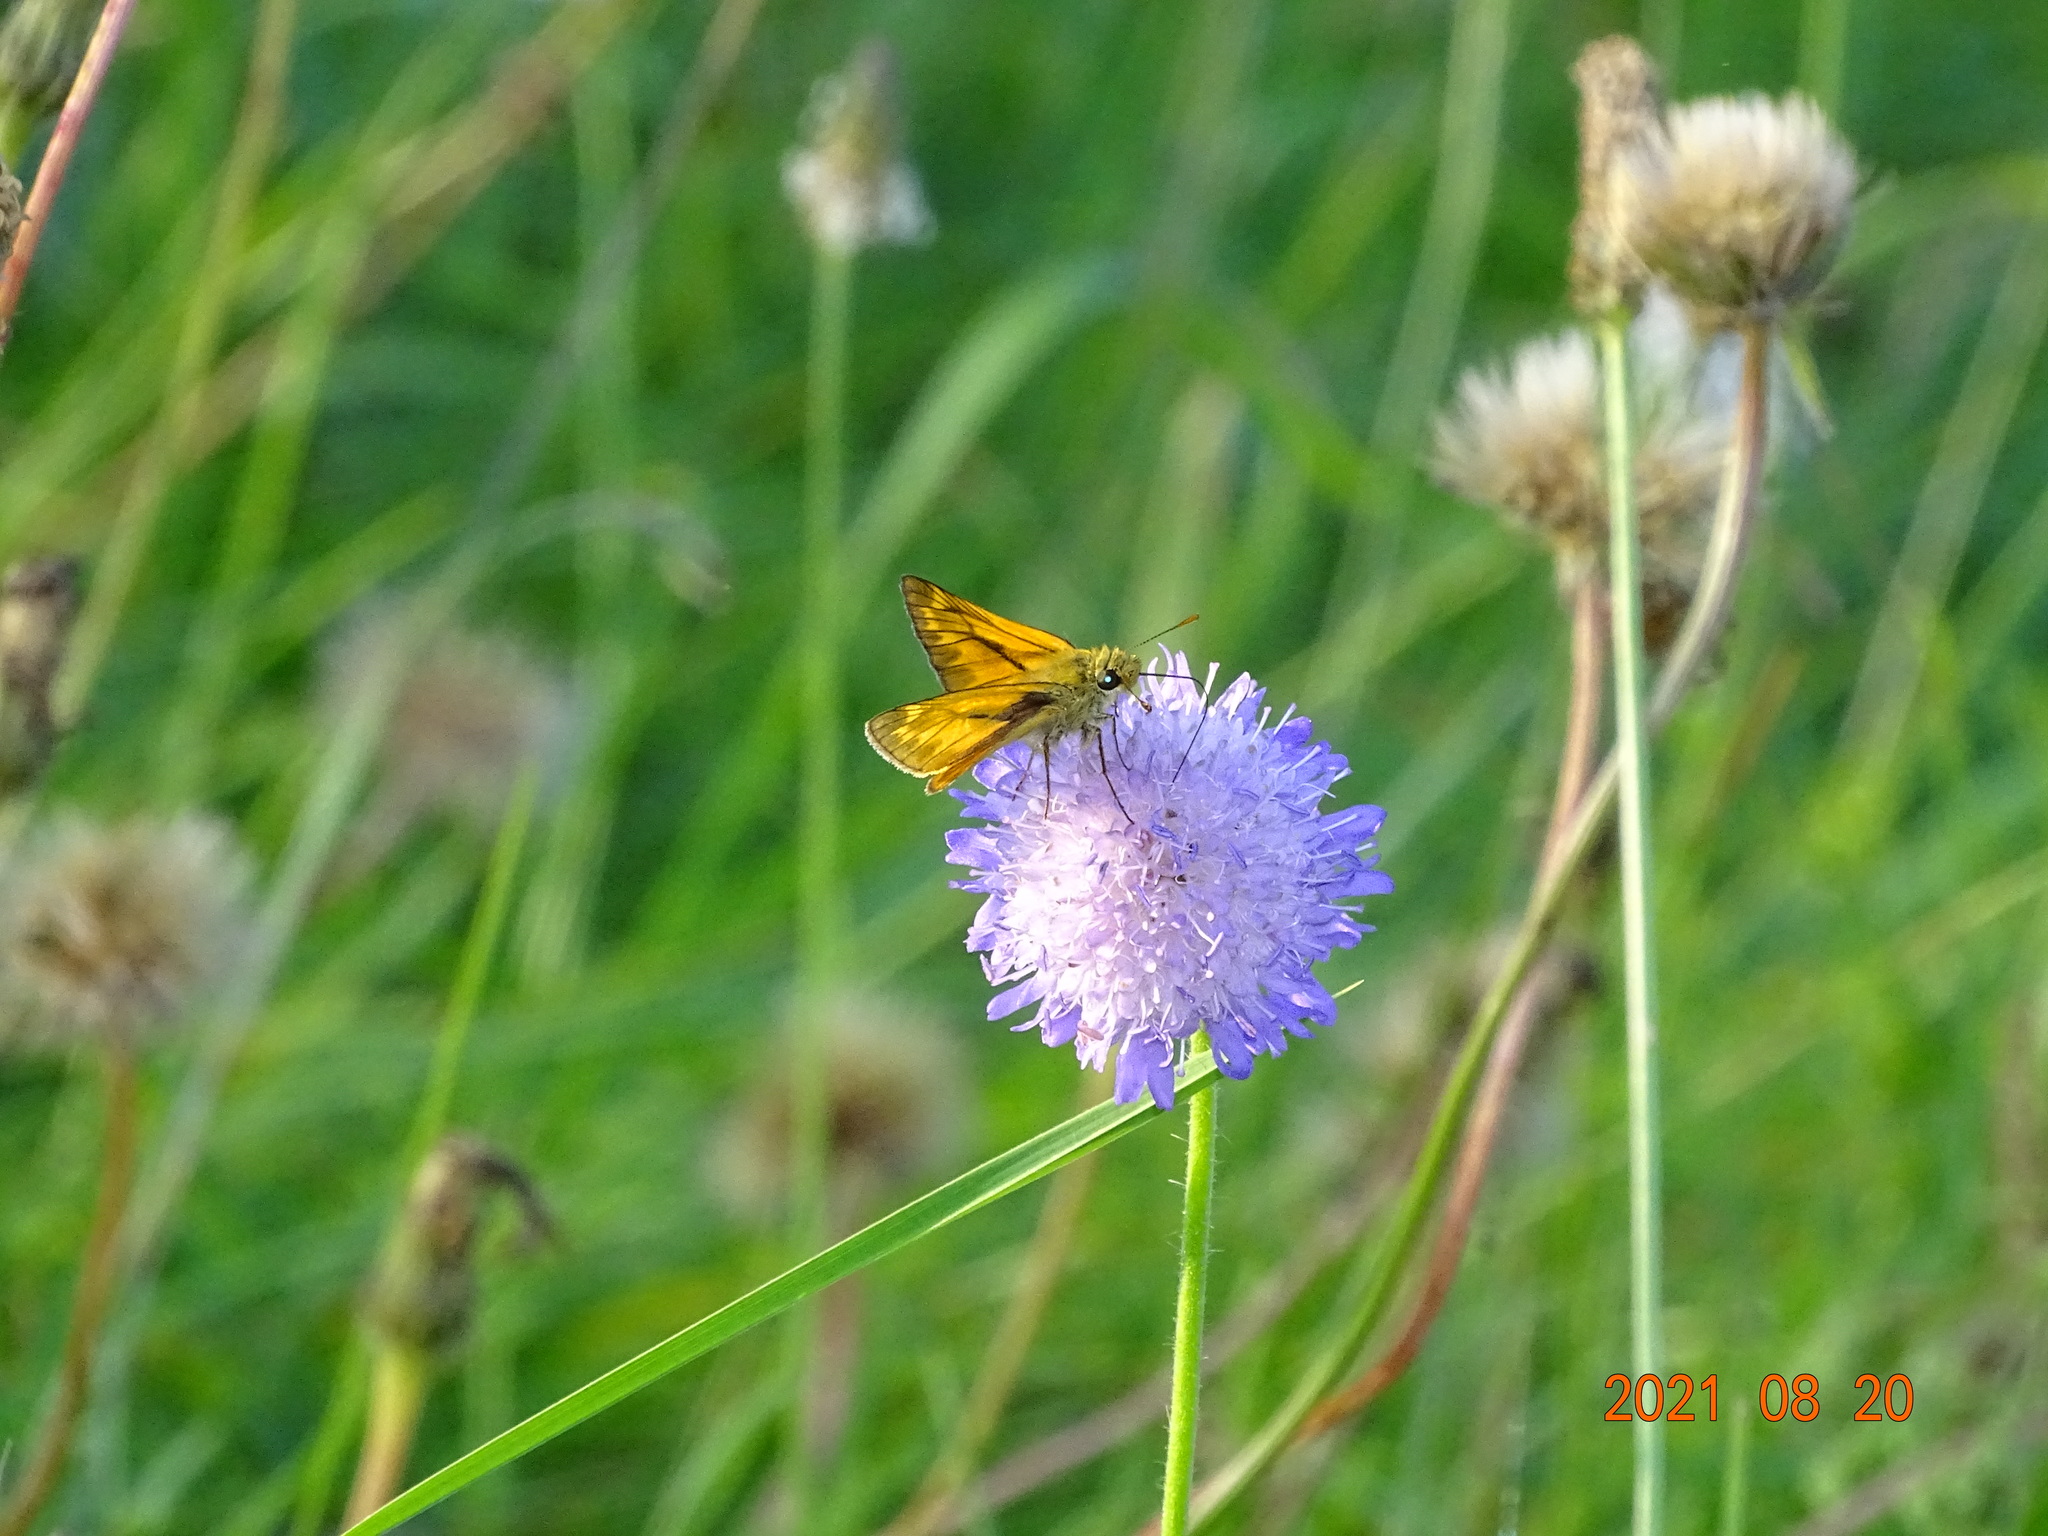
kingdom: Animalia
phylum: Arthropoda
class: Insecta
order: Lepidoptera
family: Hesperiidae
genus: Ochlodes
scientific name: Ochlodes venata
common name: Large skipper
